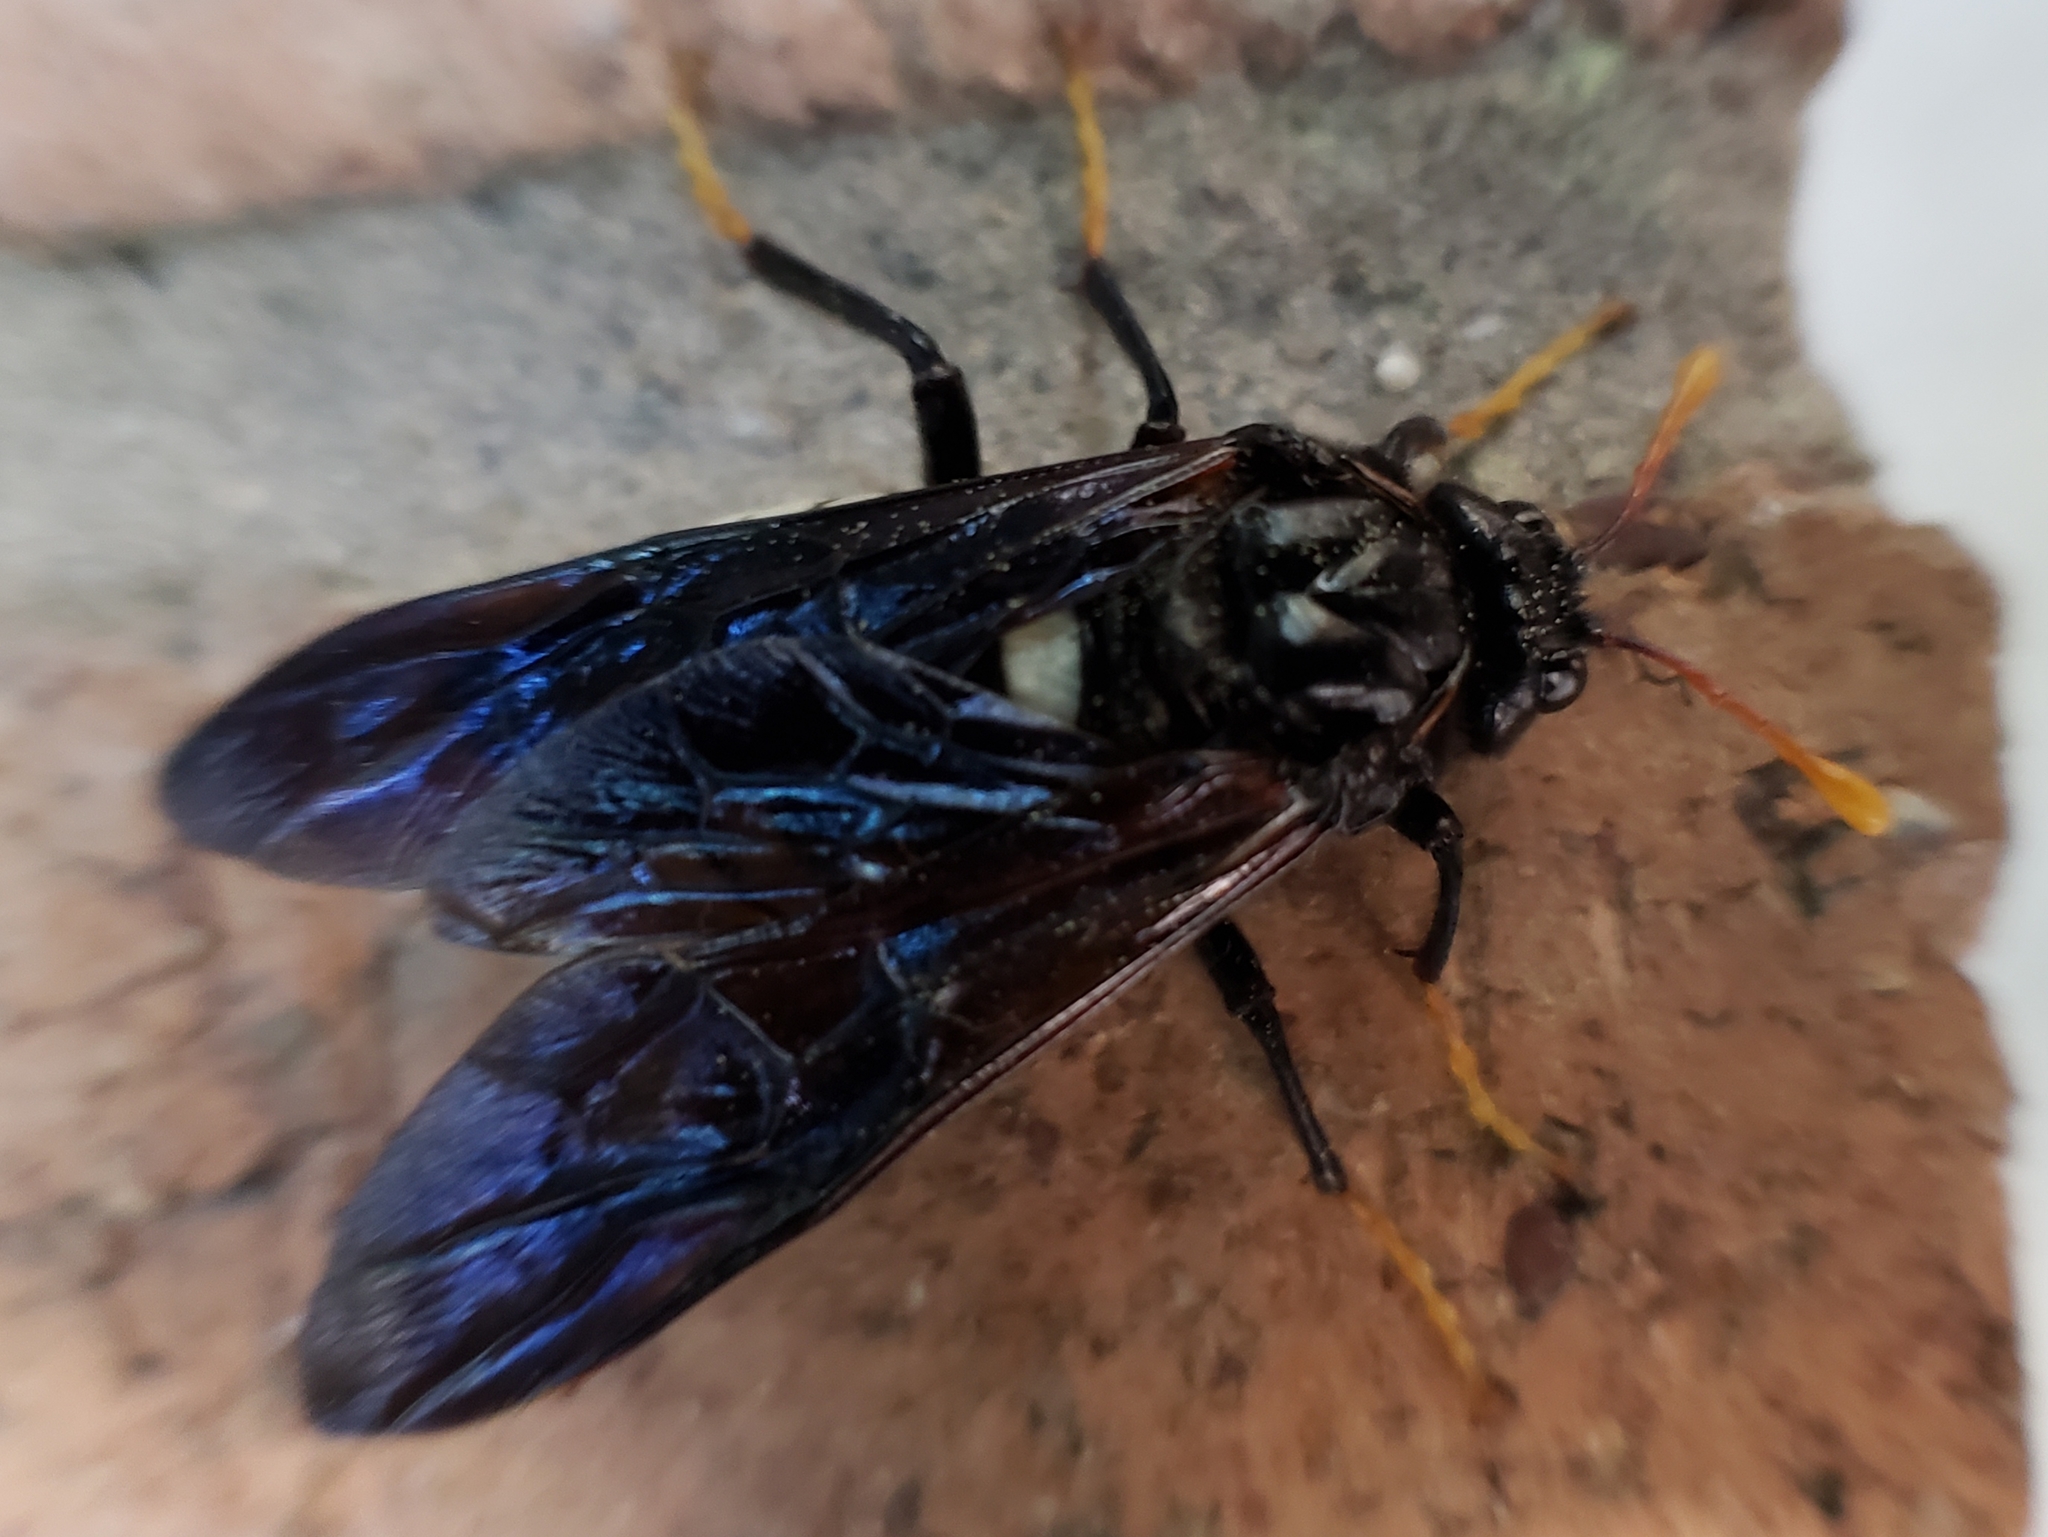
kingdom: Animalia
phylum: Arthropoda
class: Insecta
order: Hymenoptera
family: Cimbicidae
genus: Cimbex
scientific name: Cimbex americana
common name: Elm sawfly
